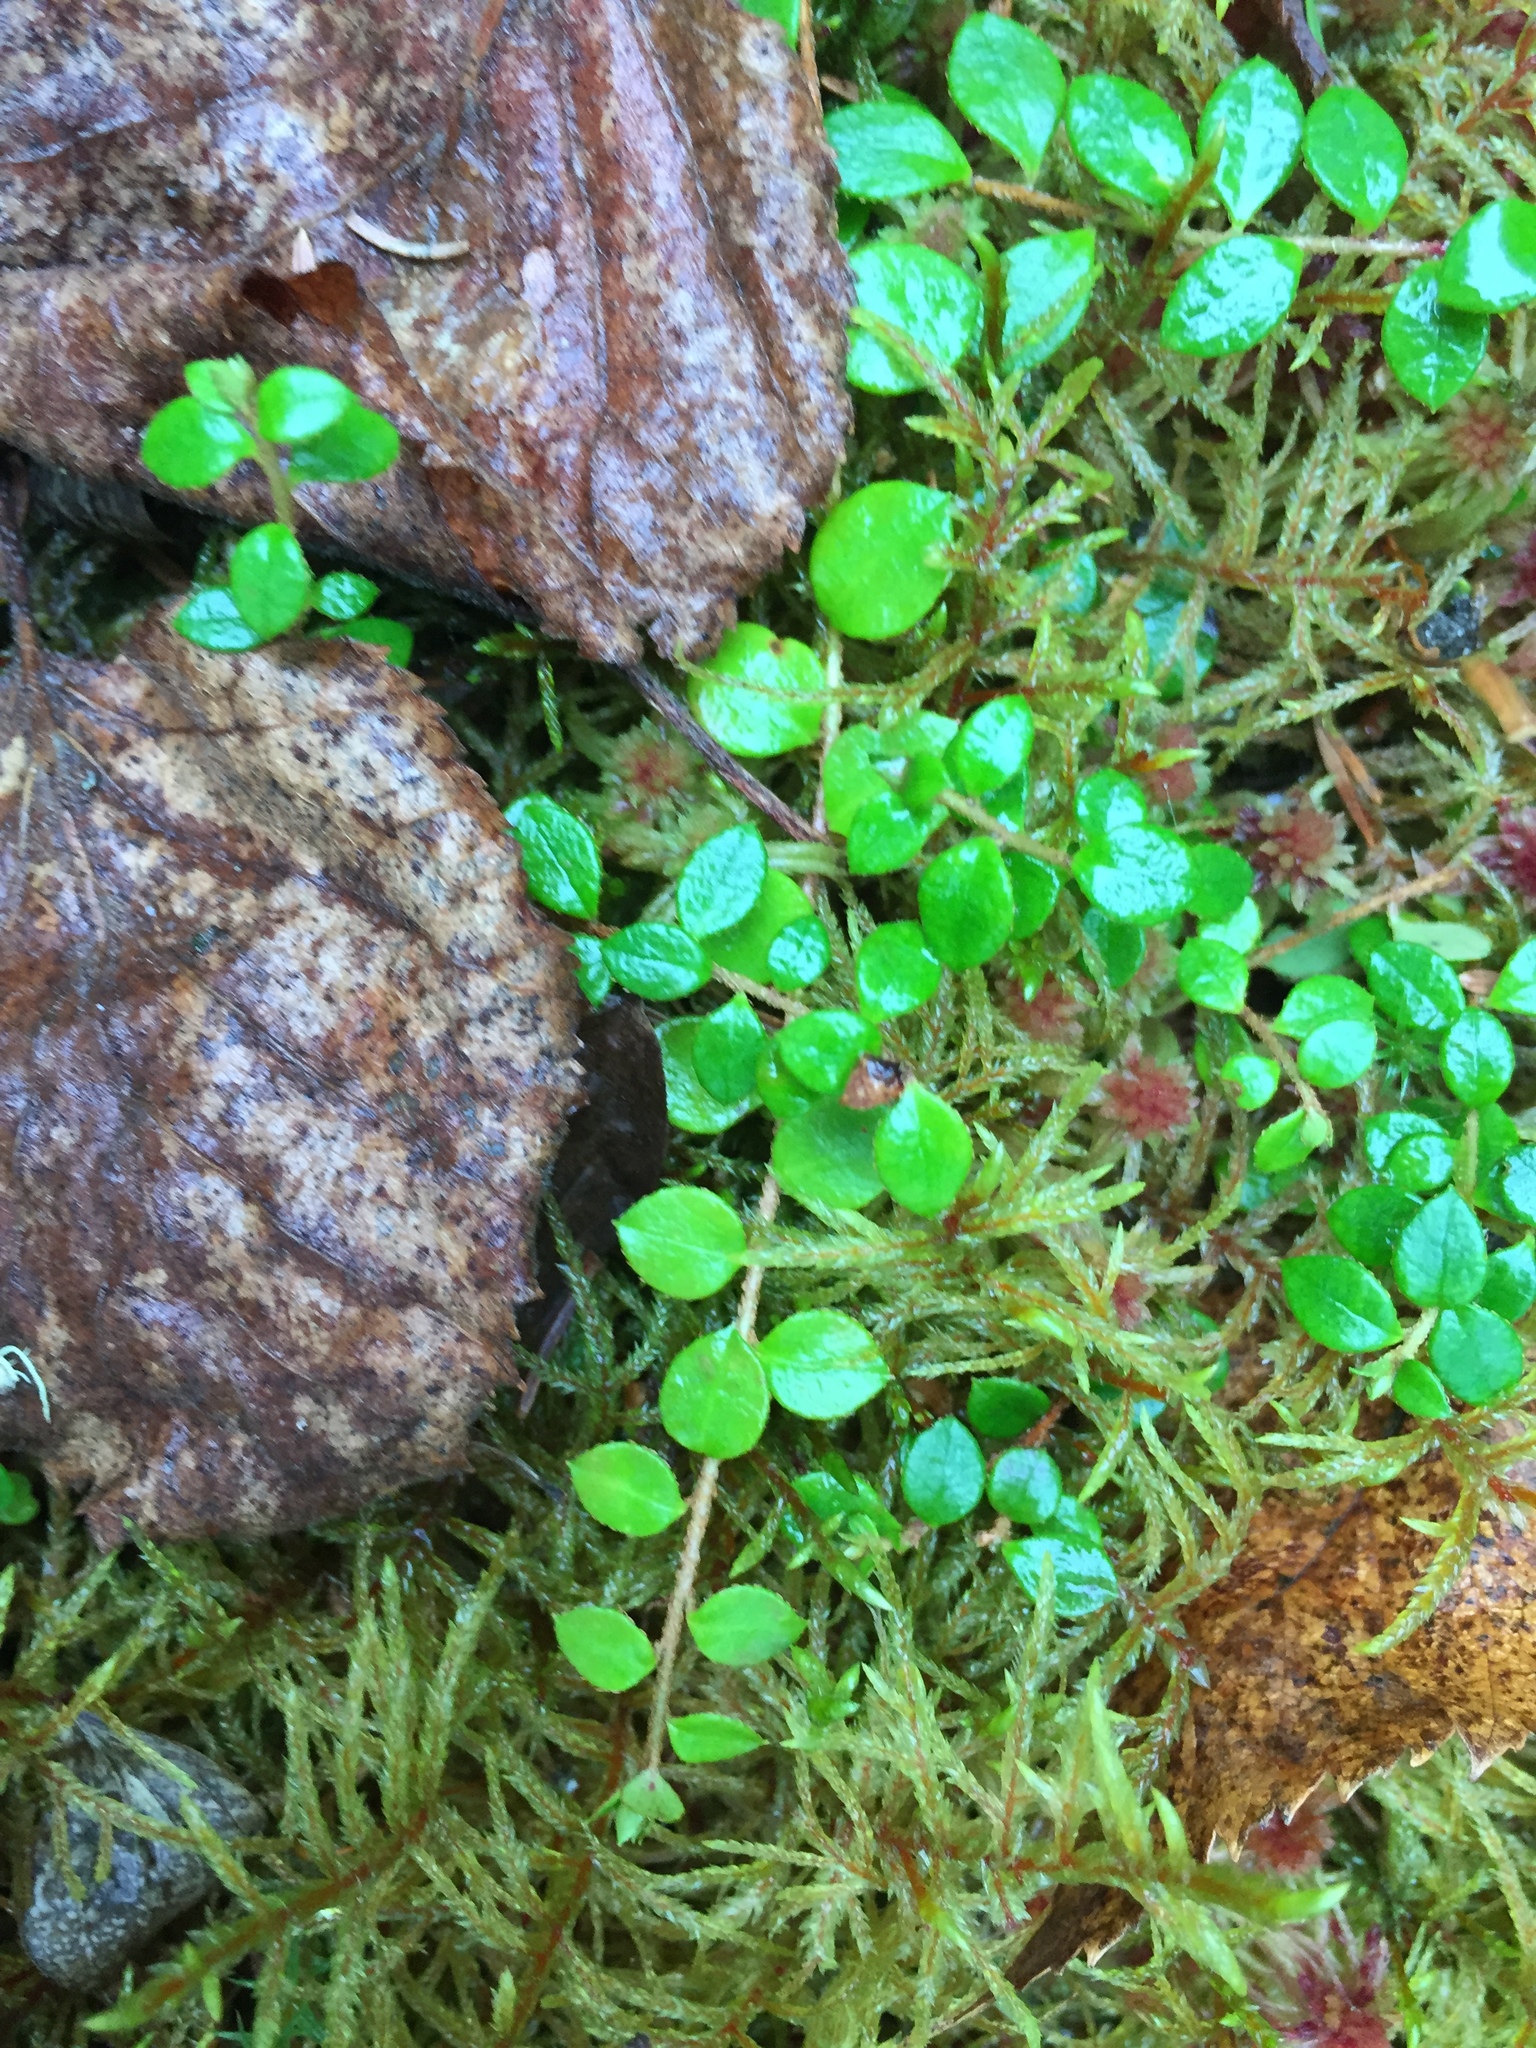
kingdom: Plantae
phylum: Tracheophyta
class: Magnoliopsida
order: Ericales
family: Ericaceae
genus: Gaultheria
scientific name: Gaultheria hispidula
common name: Cancer wintergreen
